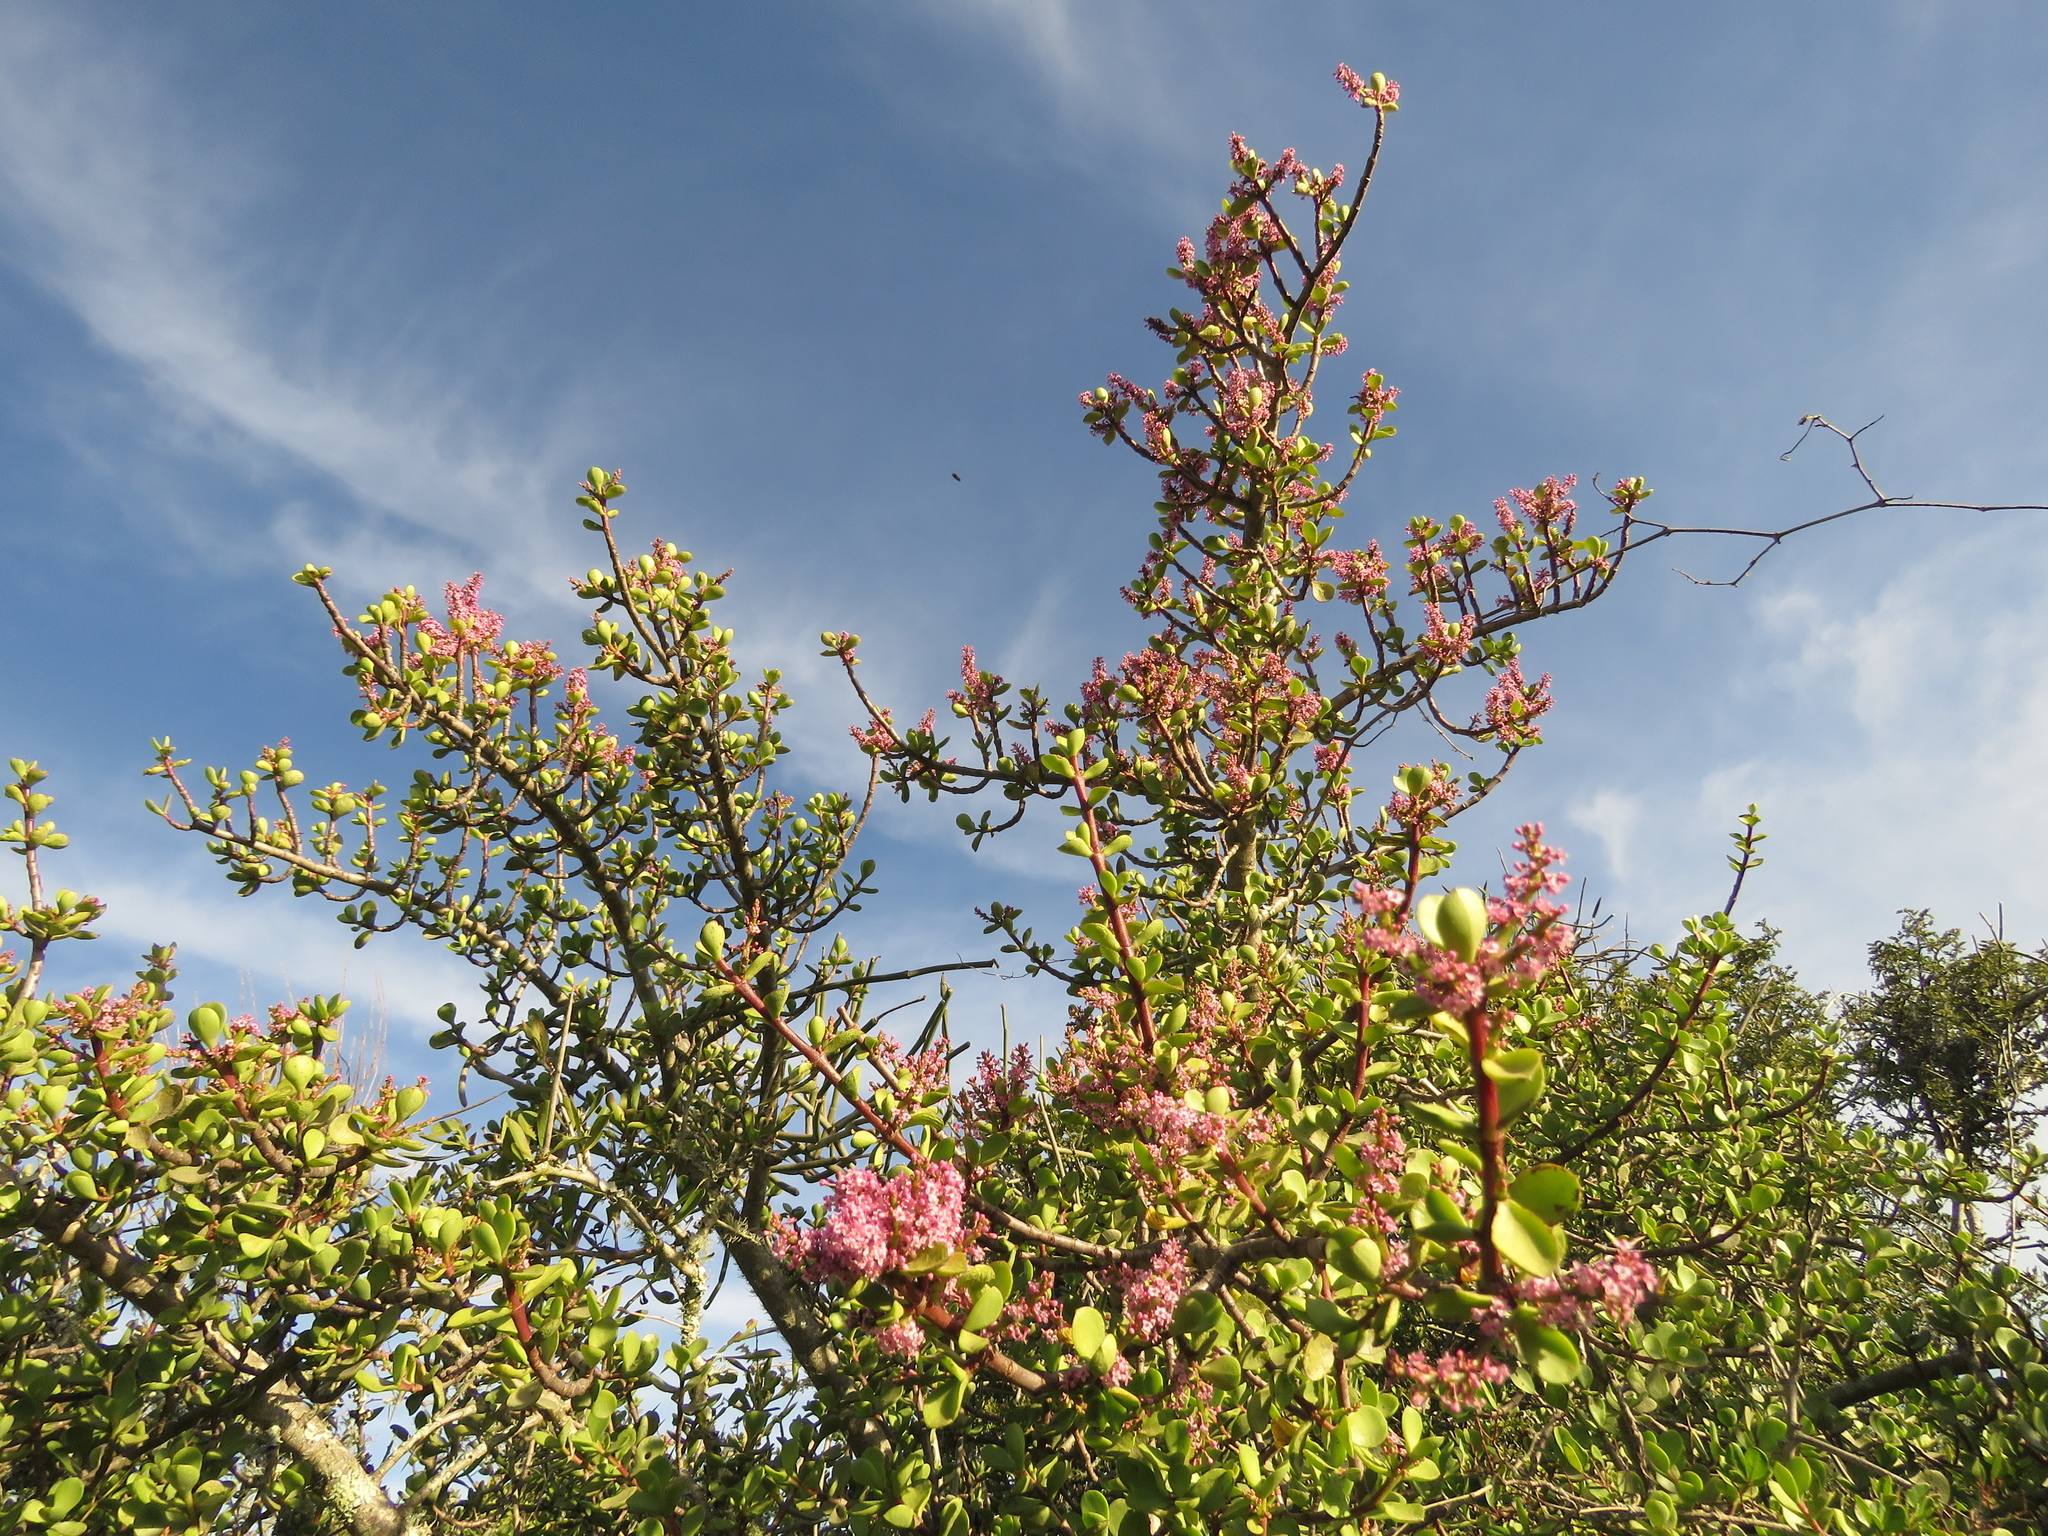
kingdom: Plantae
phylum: Tracheophyta
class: Magnoliopsida
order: Caryophyllales
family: Didiereaceae
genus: Portulacaria
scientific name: Portulacaria afra
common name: Elephant-bush
